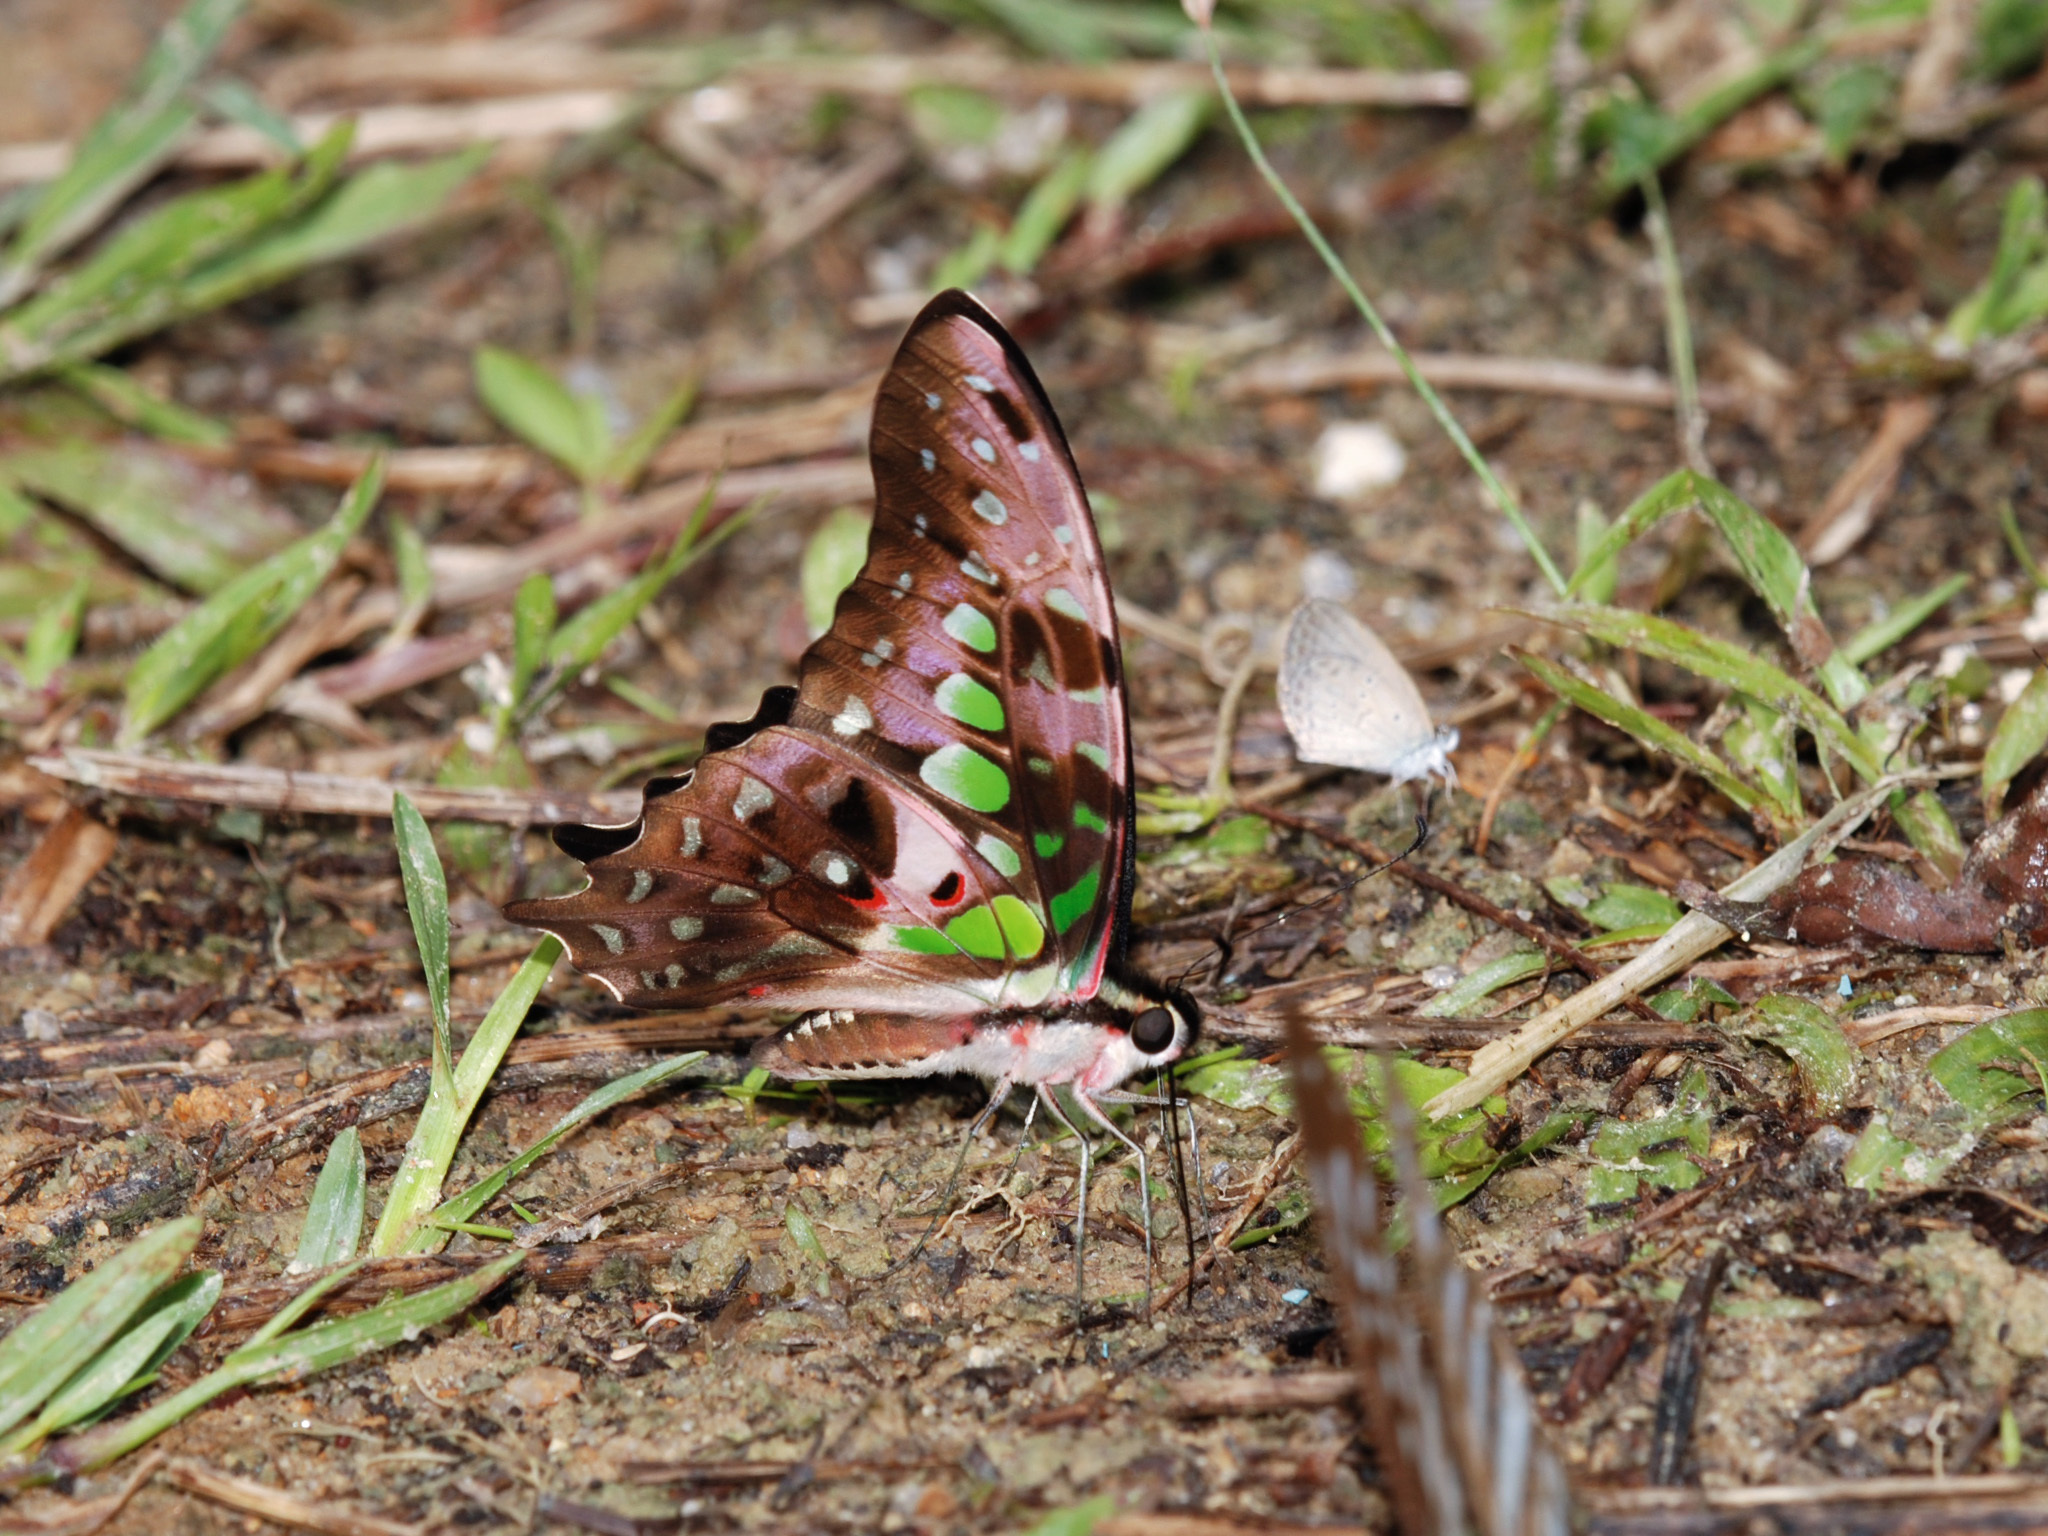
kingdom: Animalia
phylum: Arthropoda
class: Insecta
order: Lepidoptera
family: Papilionidae
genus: Graphium
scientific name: Graphium agamemnon
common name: Tailed jay
